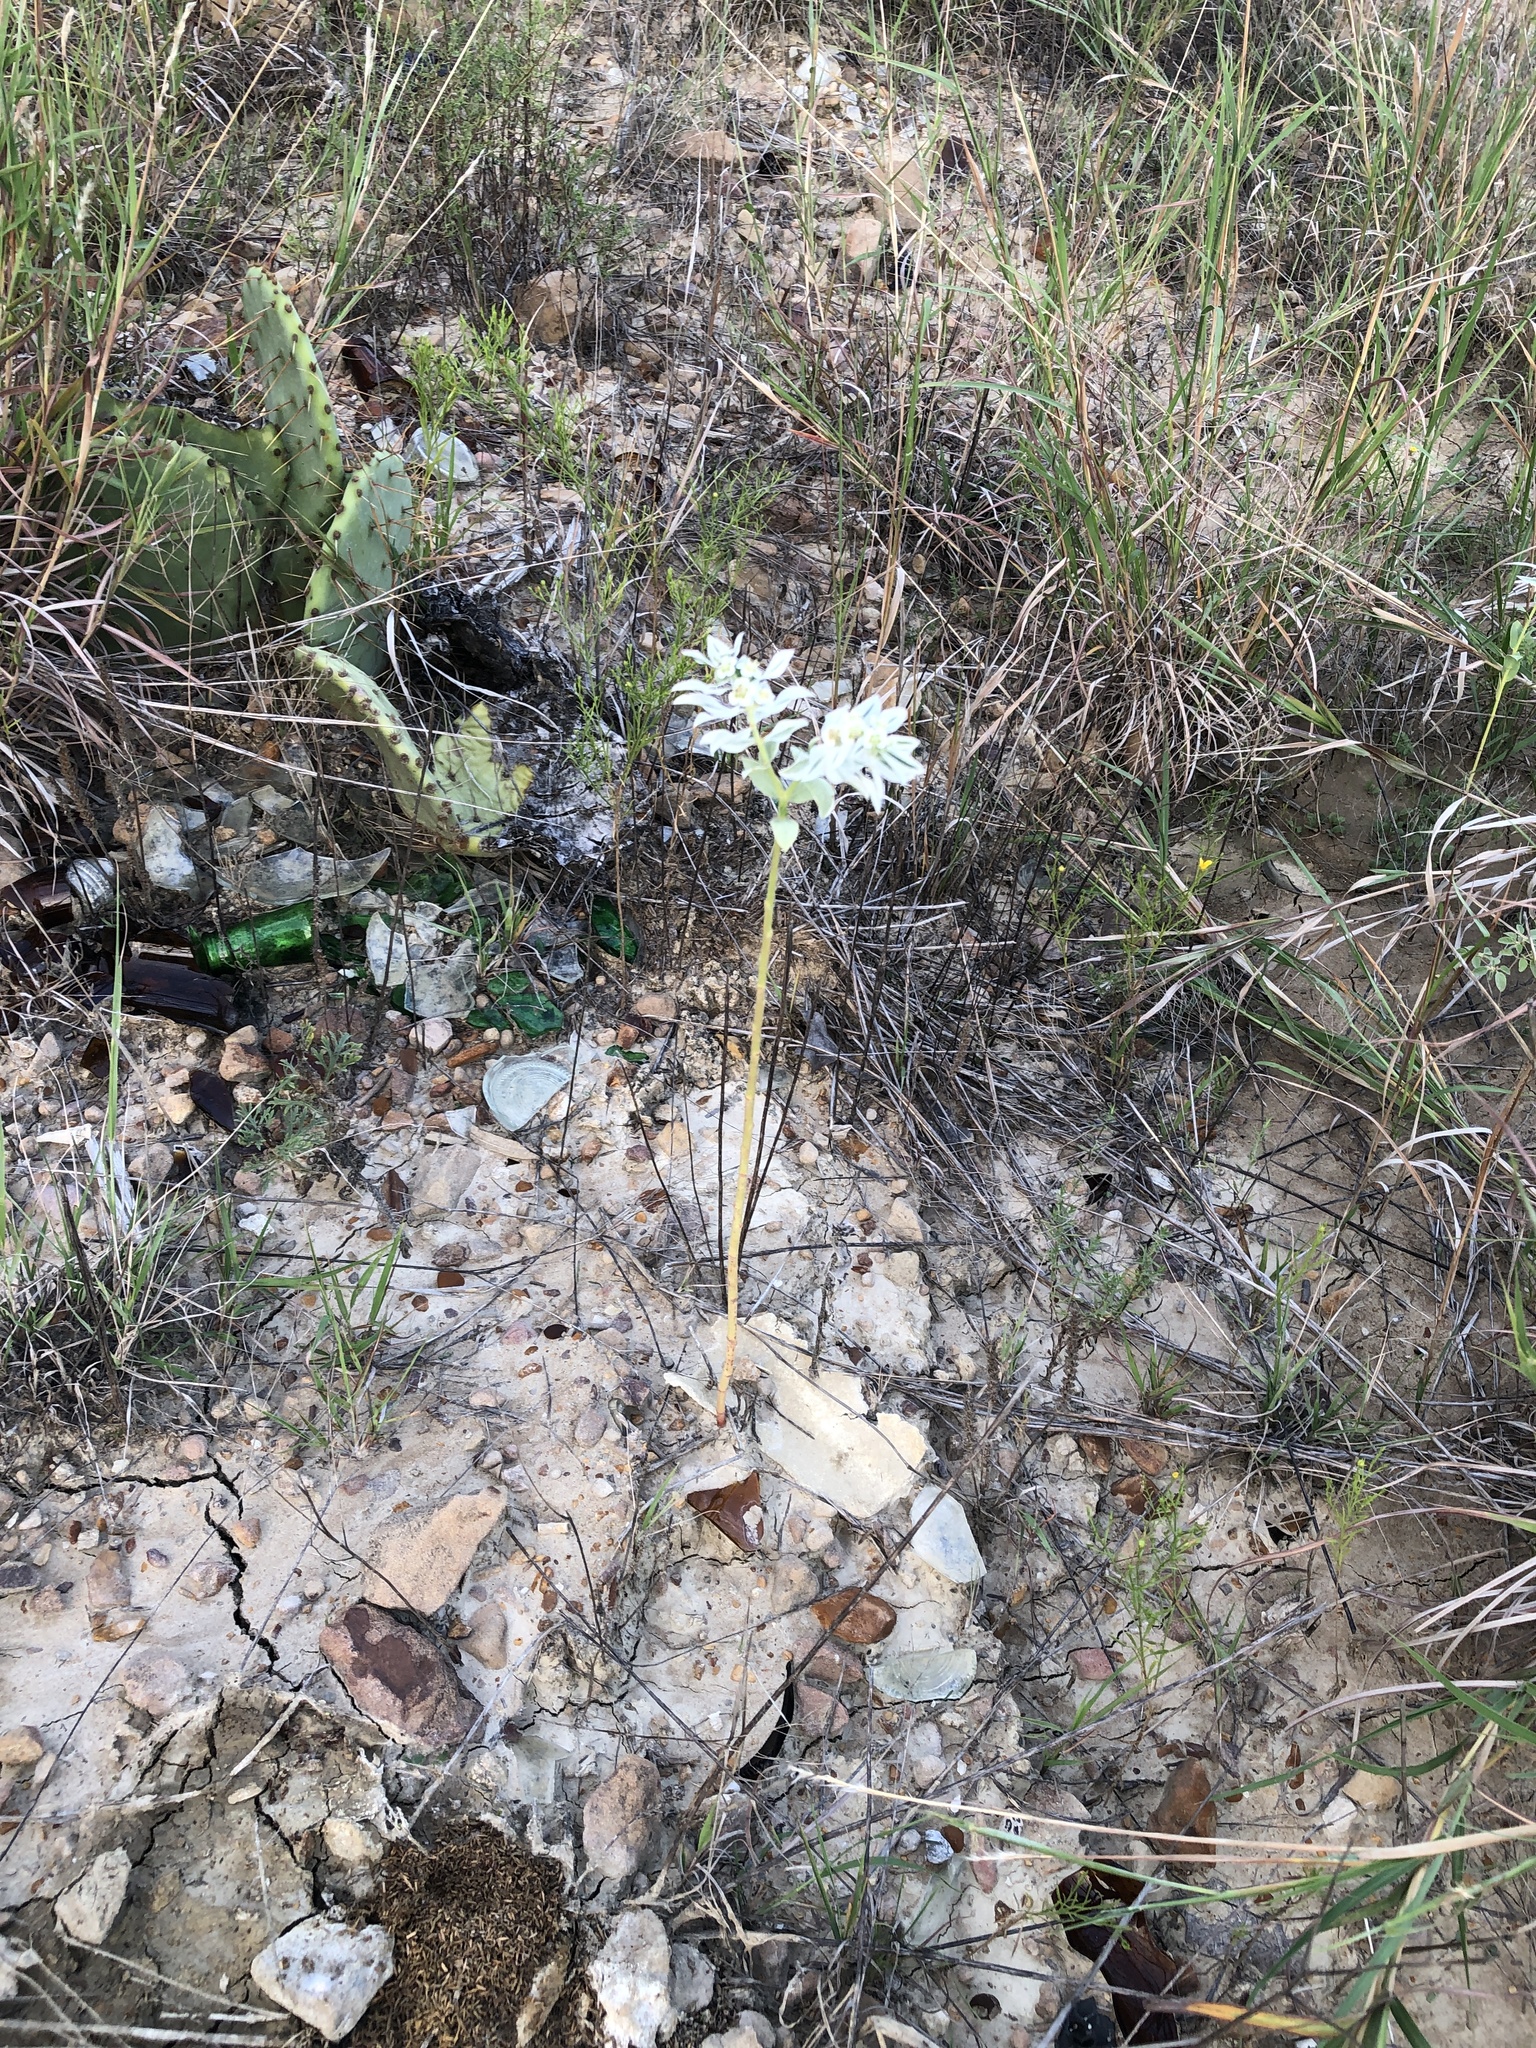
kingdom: Plantae
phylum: Tracheophyta
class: Magnoliopsida
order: Malpighiales
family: Euphorbiaceae
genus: Euphorbia
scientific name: Euphorbia marginata
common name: Ghostweed
